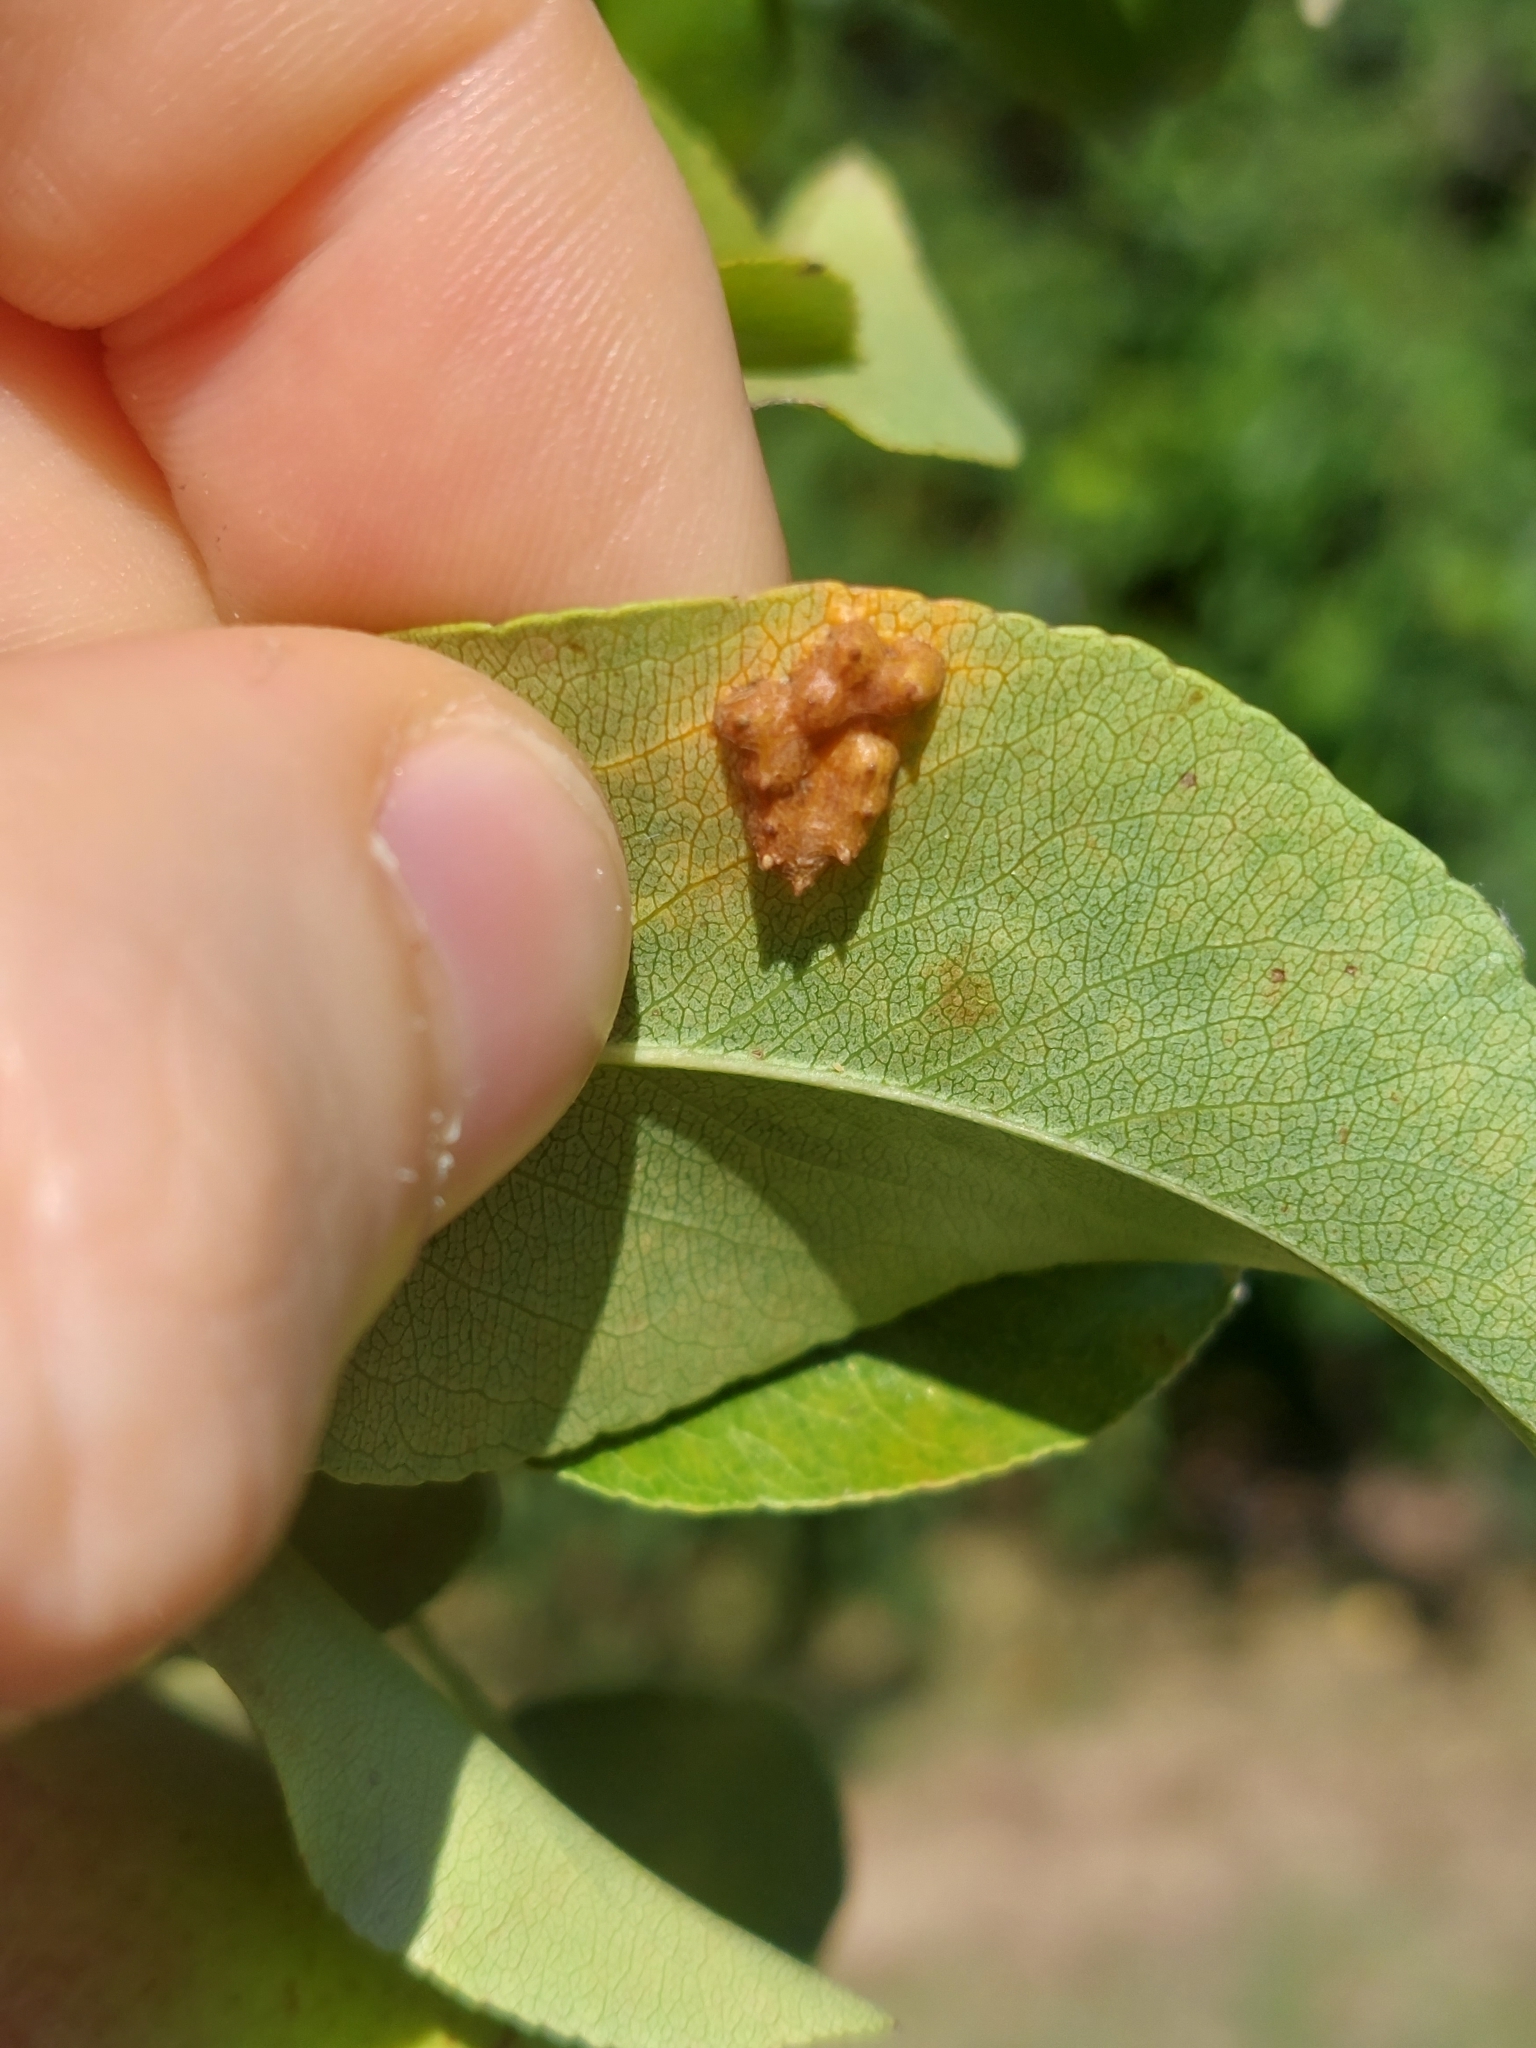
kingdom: Fungi
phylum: Basidiomycota
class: Pucciniomycetes
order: Pucciniales
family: Gymnosporangiaceae
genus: Gymnosporangium
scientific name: Gymnosporangium sabinae
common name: Pear trellis rust fungus
